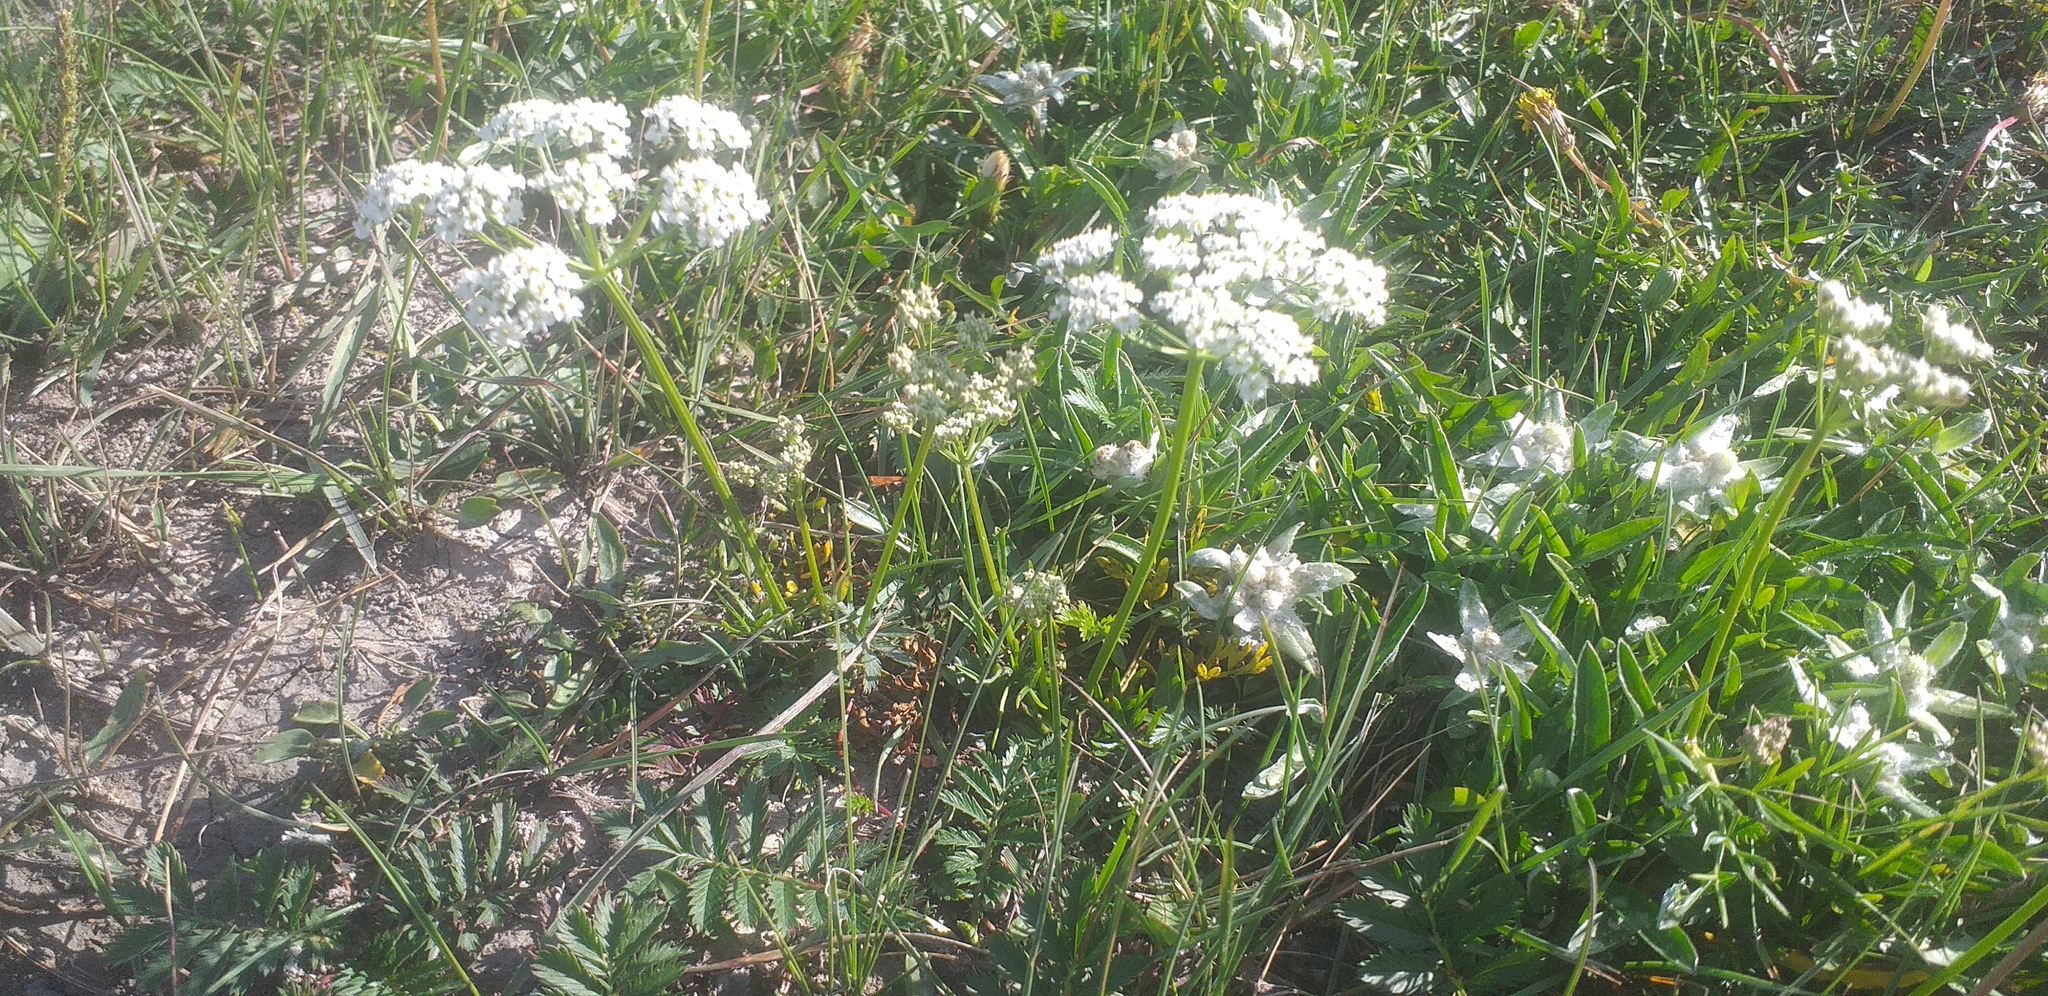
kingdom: Plantae
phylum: Tracheophyta
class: Magnoliopsida
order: Apiales
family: Apiaceae
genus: Peucedanum
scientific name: Peucedanum vaginatum
